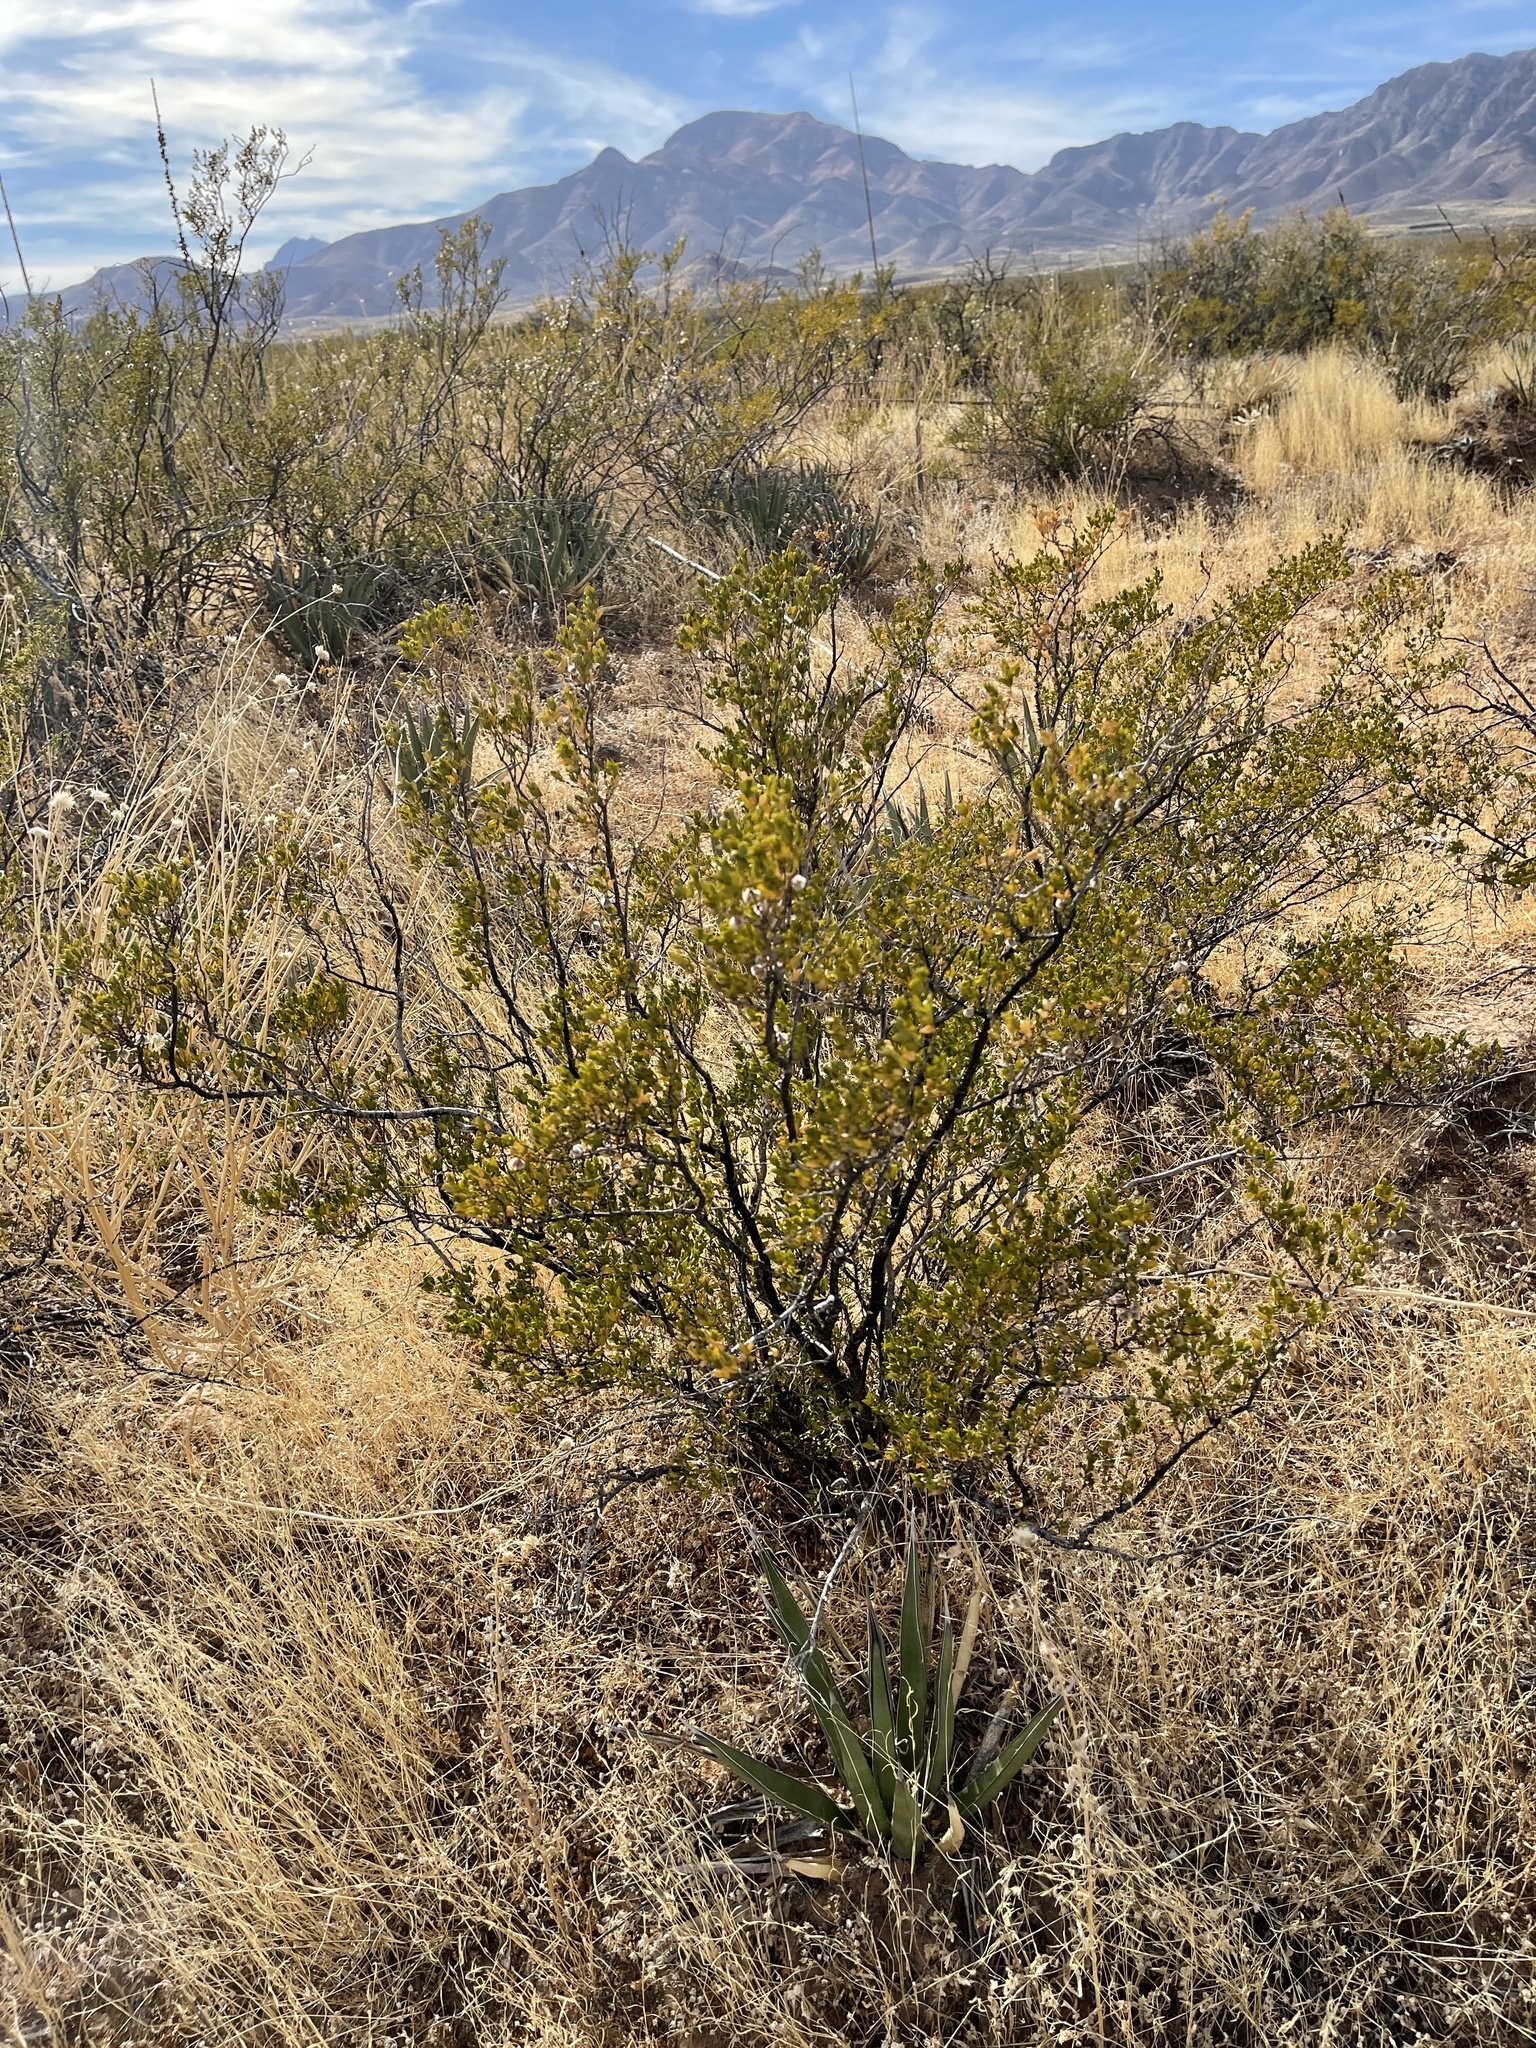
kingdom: Plantae
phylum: Tracheophyta
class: Magnoliopsida
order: Zygophyllales
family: Zygophyllaceae
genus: Larrea
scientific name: Larrea tridentata
